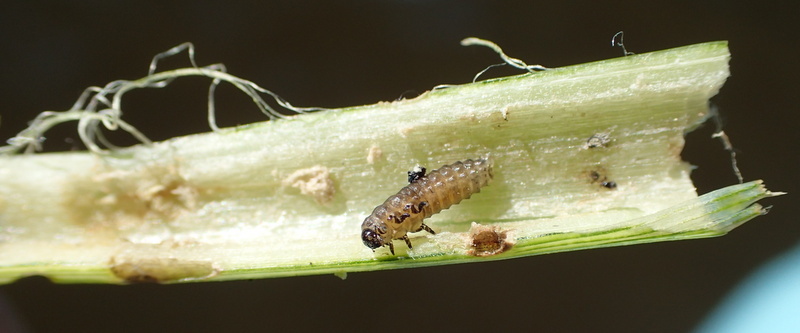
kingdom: Animalia
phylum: Arthropoda
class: Insecta
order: Coleoptera
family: Chrysomelidae
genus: Agasicles
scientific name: Agasicles hygrophila
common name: Alligatorweed flea beetle
